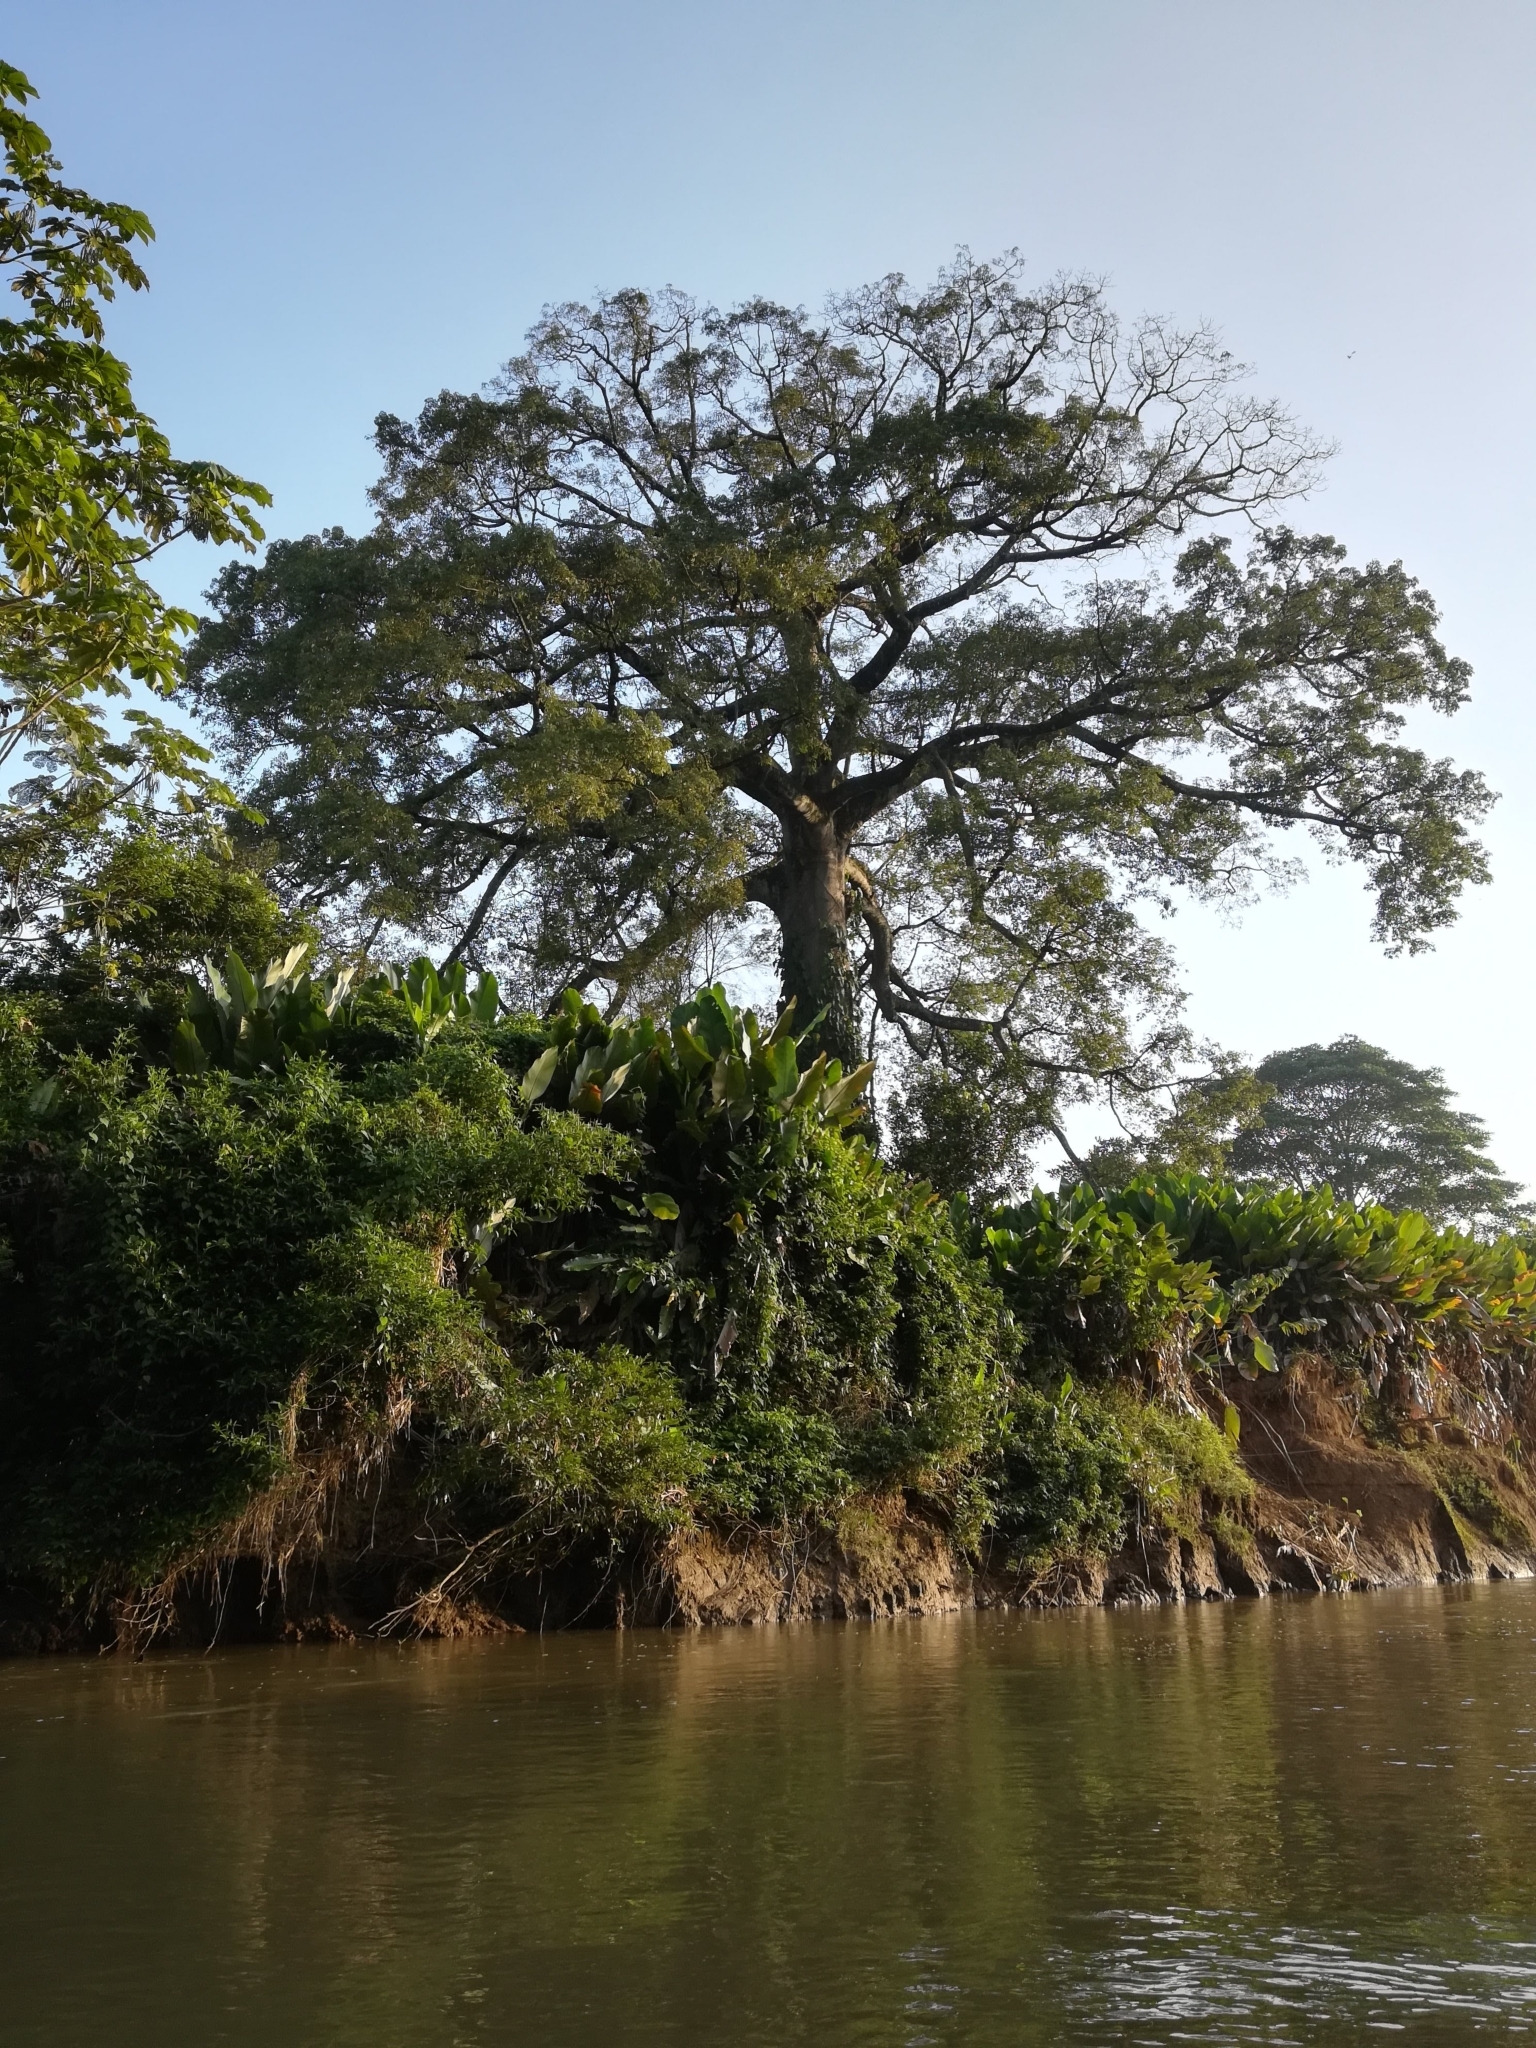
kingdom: Plantae
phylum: Tracheophyta
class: Magnoliopsida
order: Malvales
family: Malvaceae
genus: Ceiba
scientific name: Ceiba pentandra
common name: Kapok
